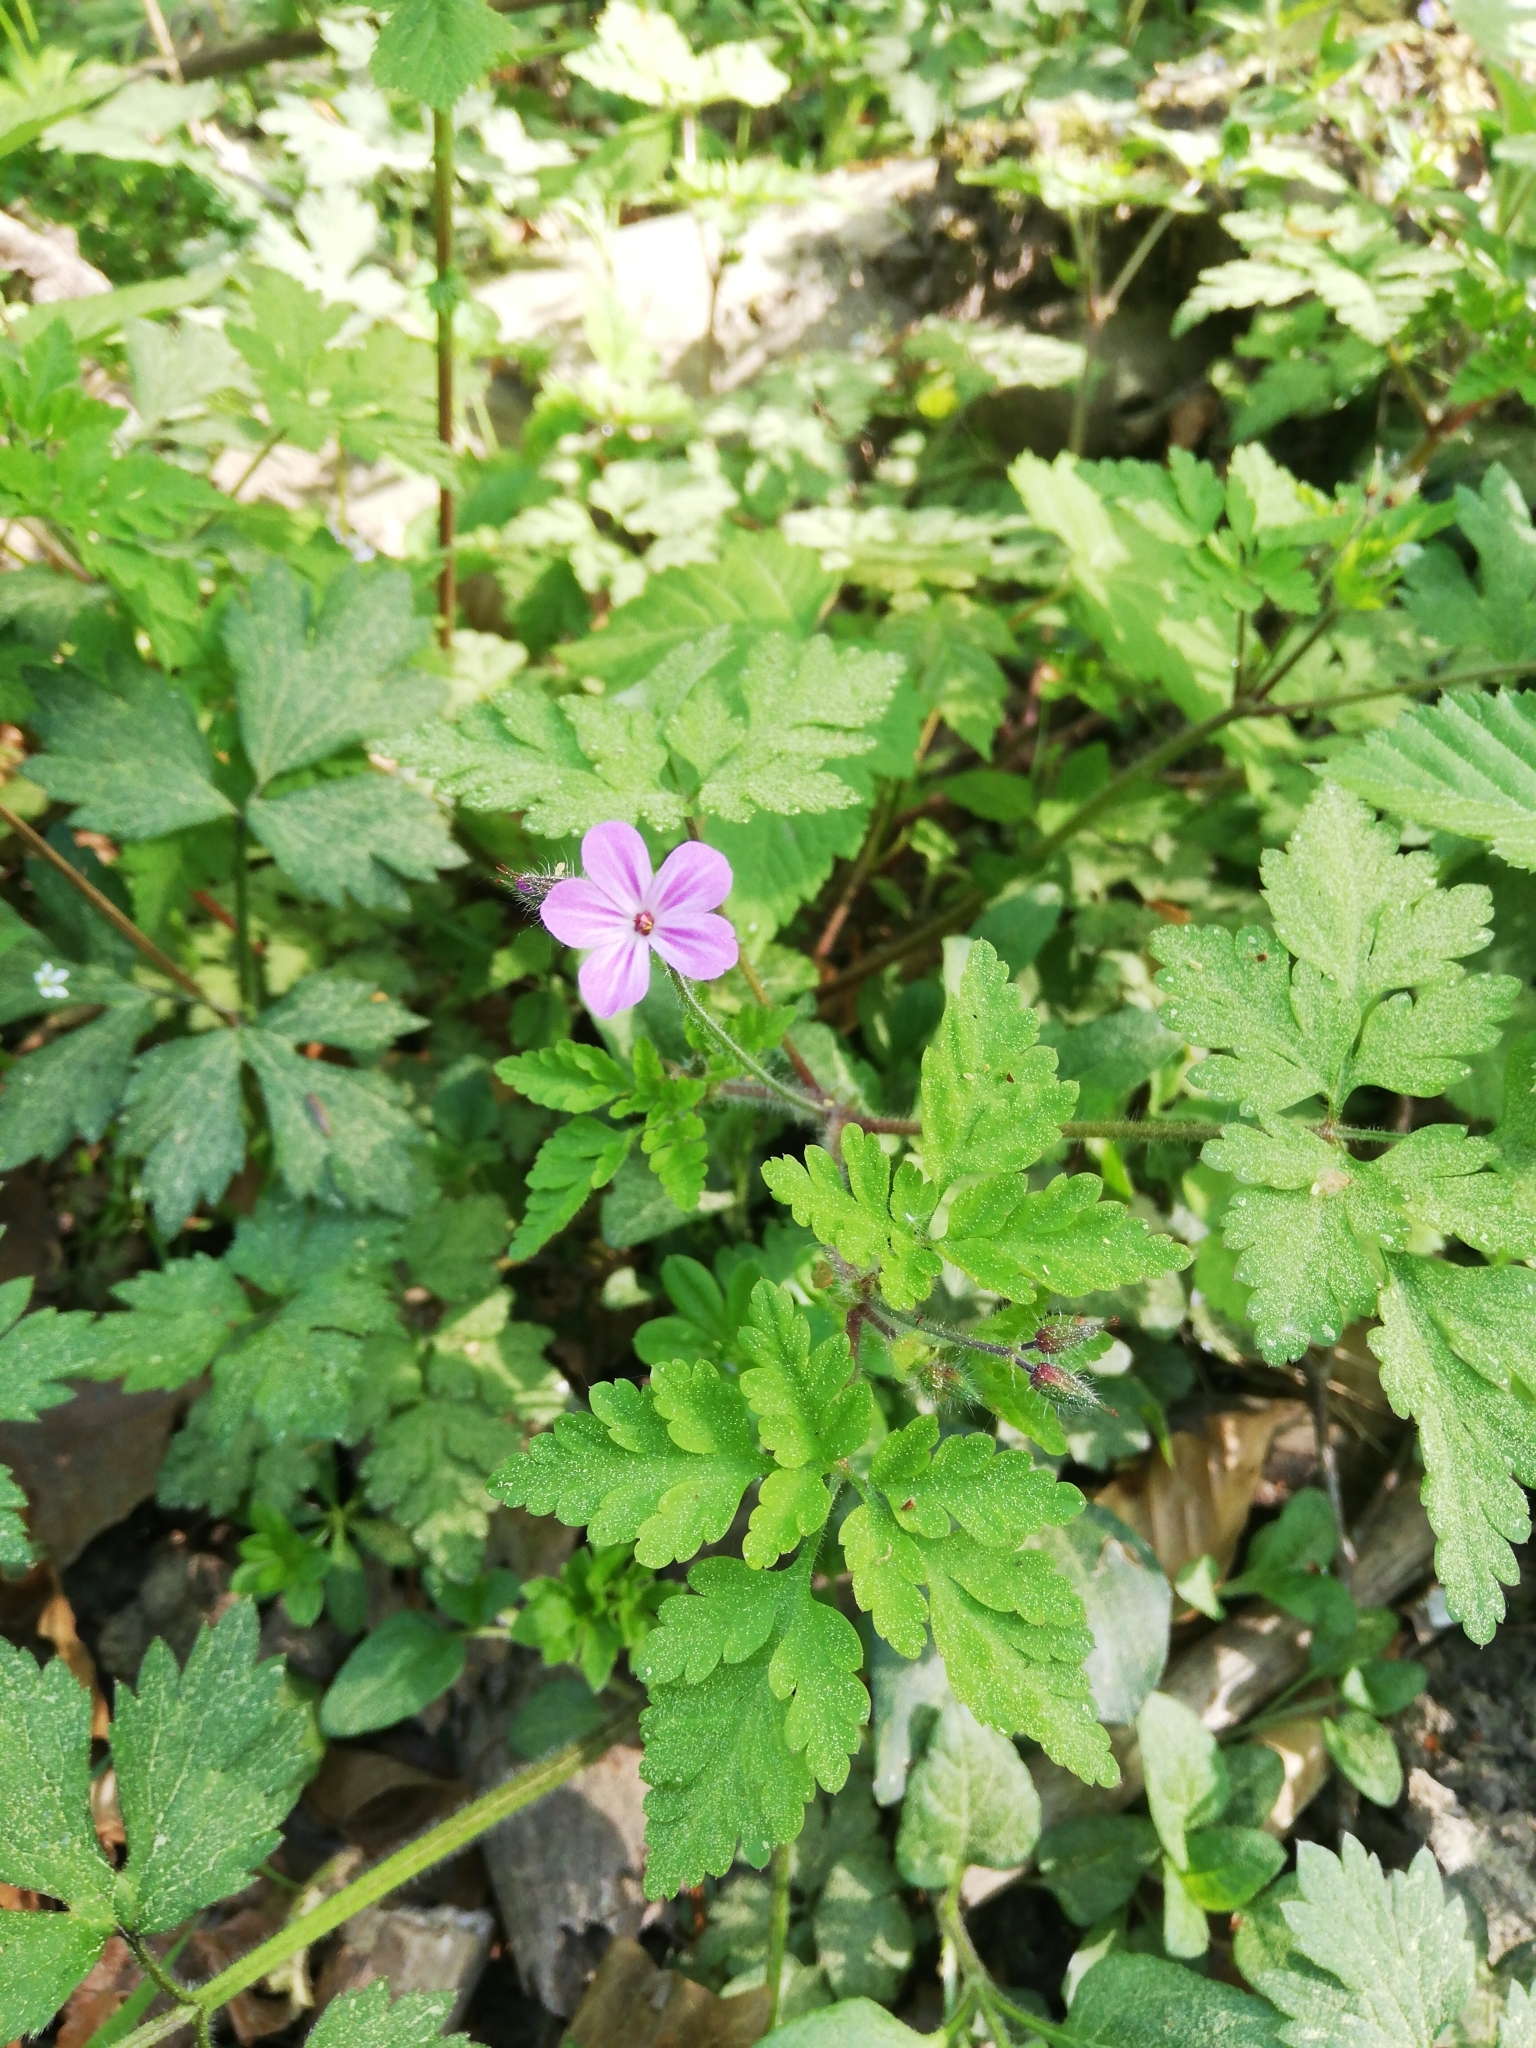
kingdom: Plantae
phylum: Tracheophyta
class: Magnoliopsida
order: Geraniales
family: Geraniaceae
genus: Geranium
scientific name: Geranium robertianum
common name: Herb-robert
